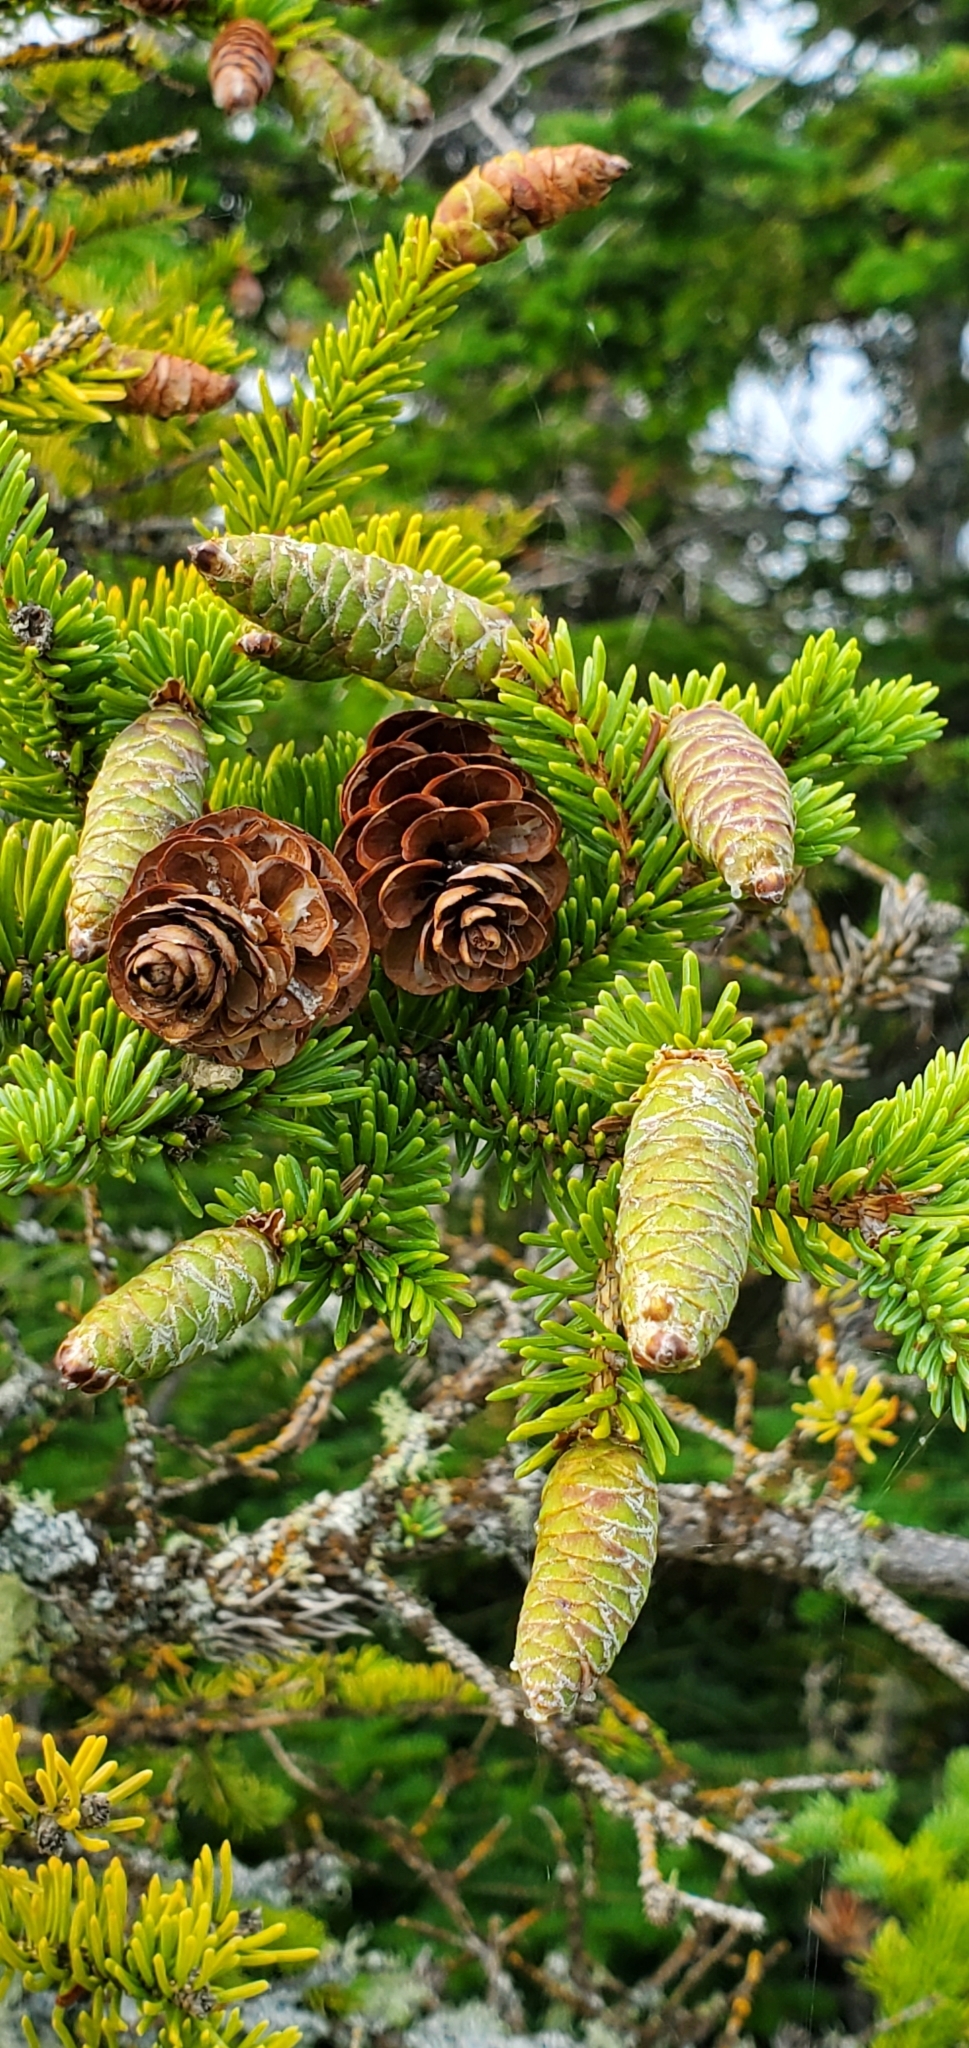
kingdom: Plantae
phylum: Tracheophyta
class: Pinopsida
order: Pinales
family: Pinaceae
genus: Picea
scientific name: Picea glauca
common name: White spruce
